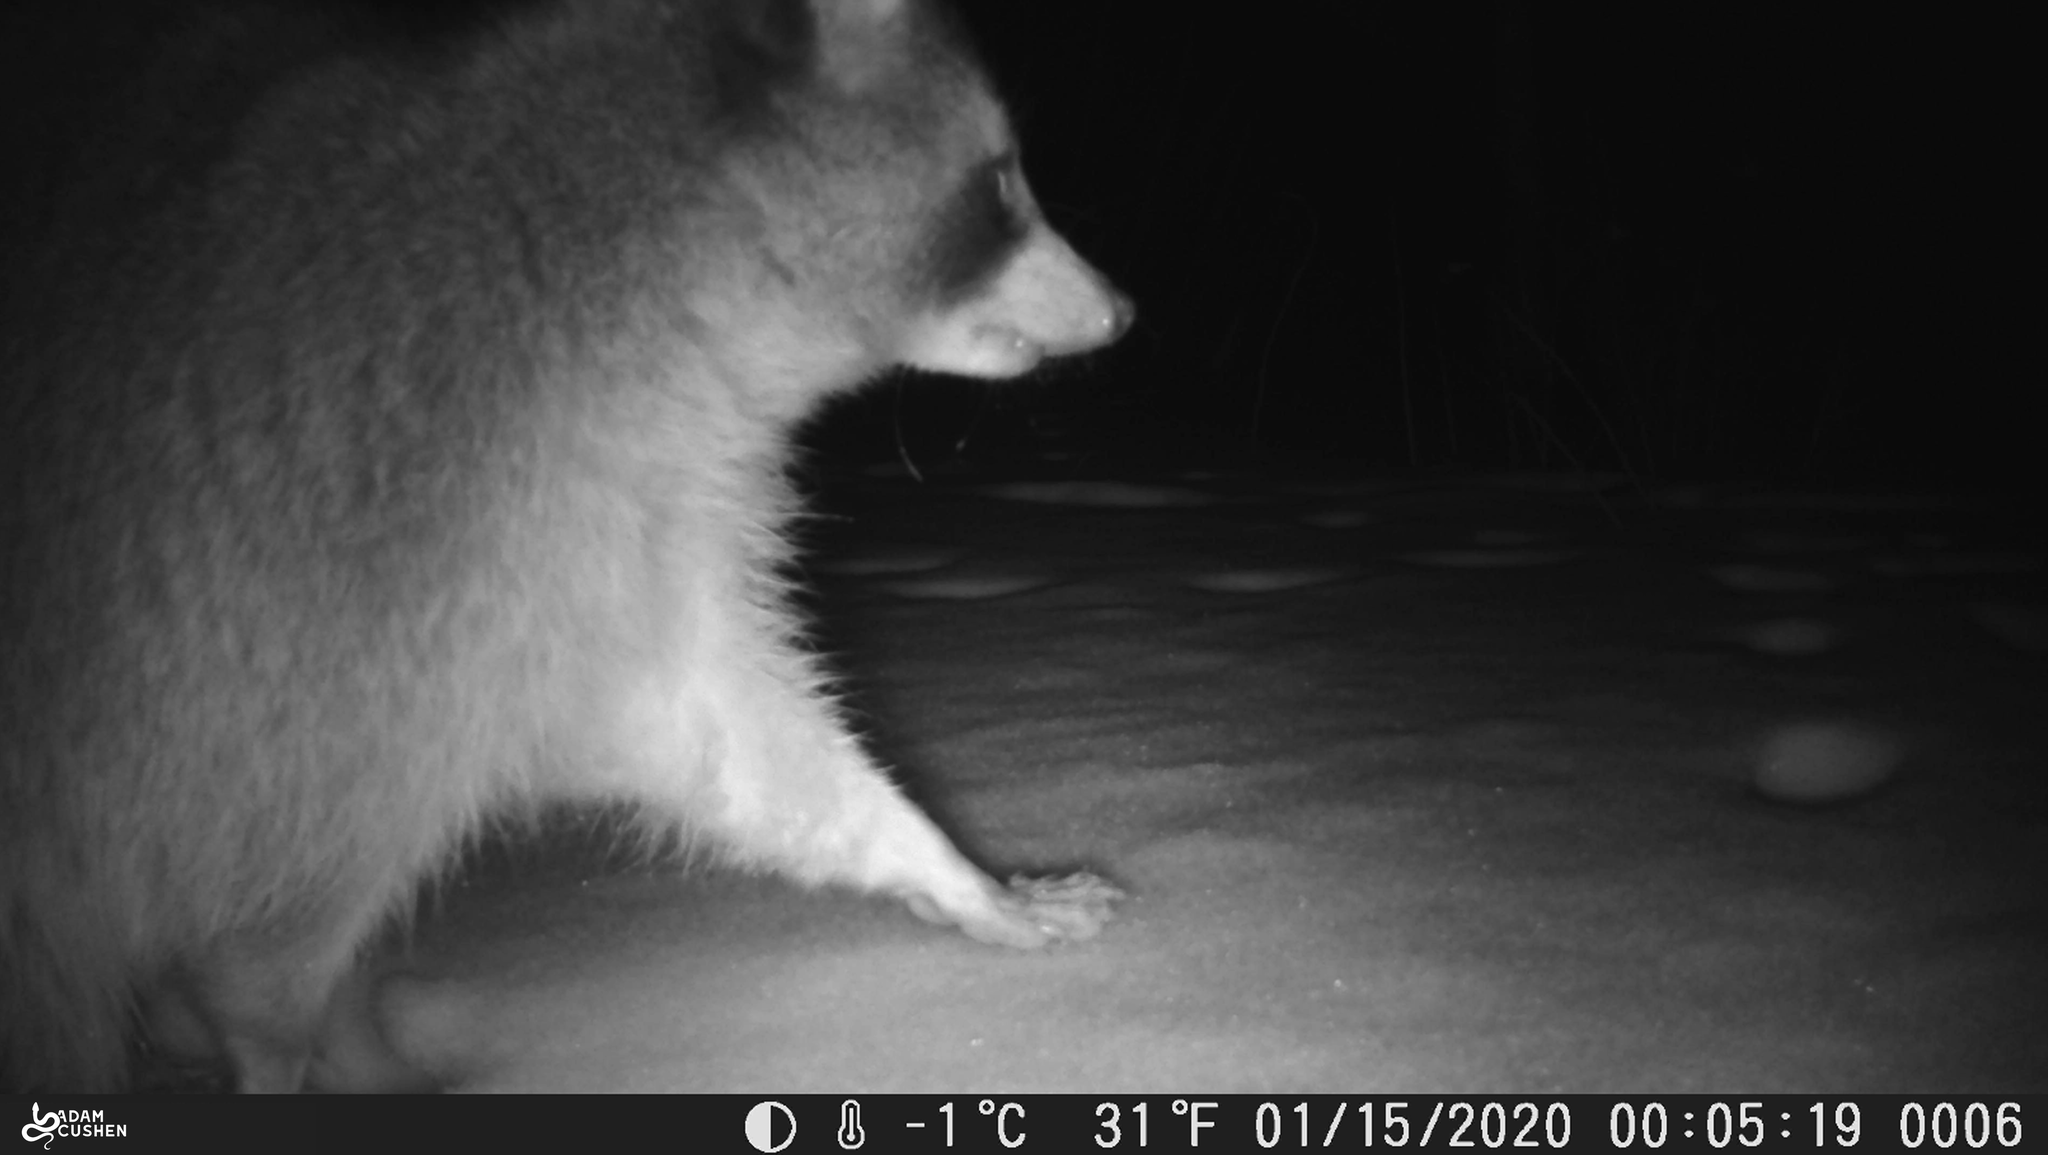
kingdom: Animalia
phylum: Chordata
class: Mammalia
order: Carnivora
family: Procyonidae
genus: Procyon
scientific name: Procyon lotor
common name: Raccoon
